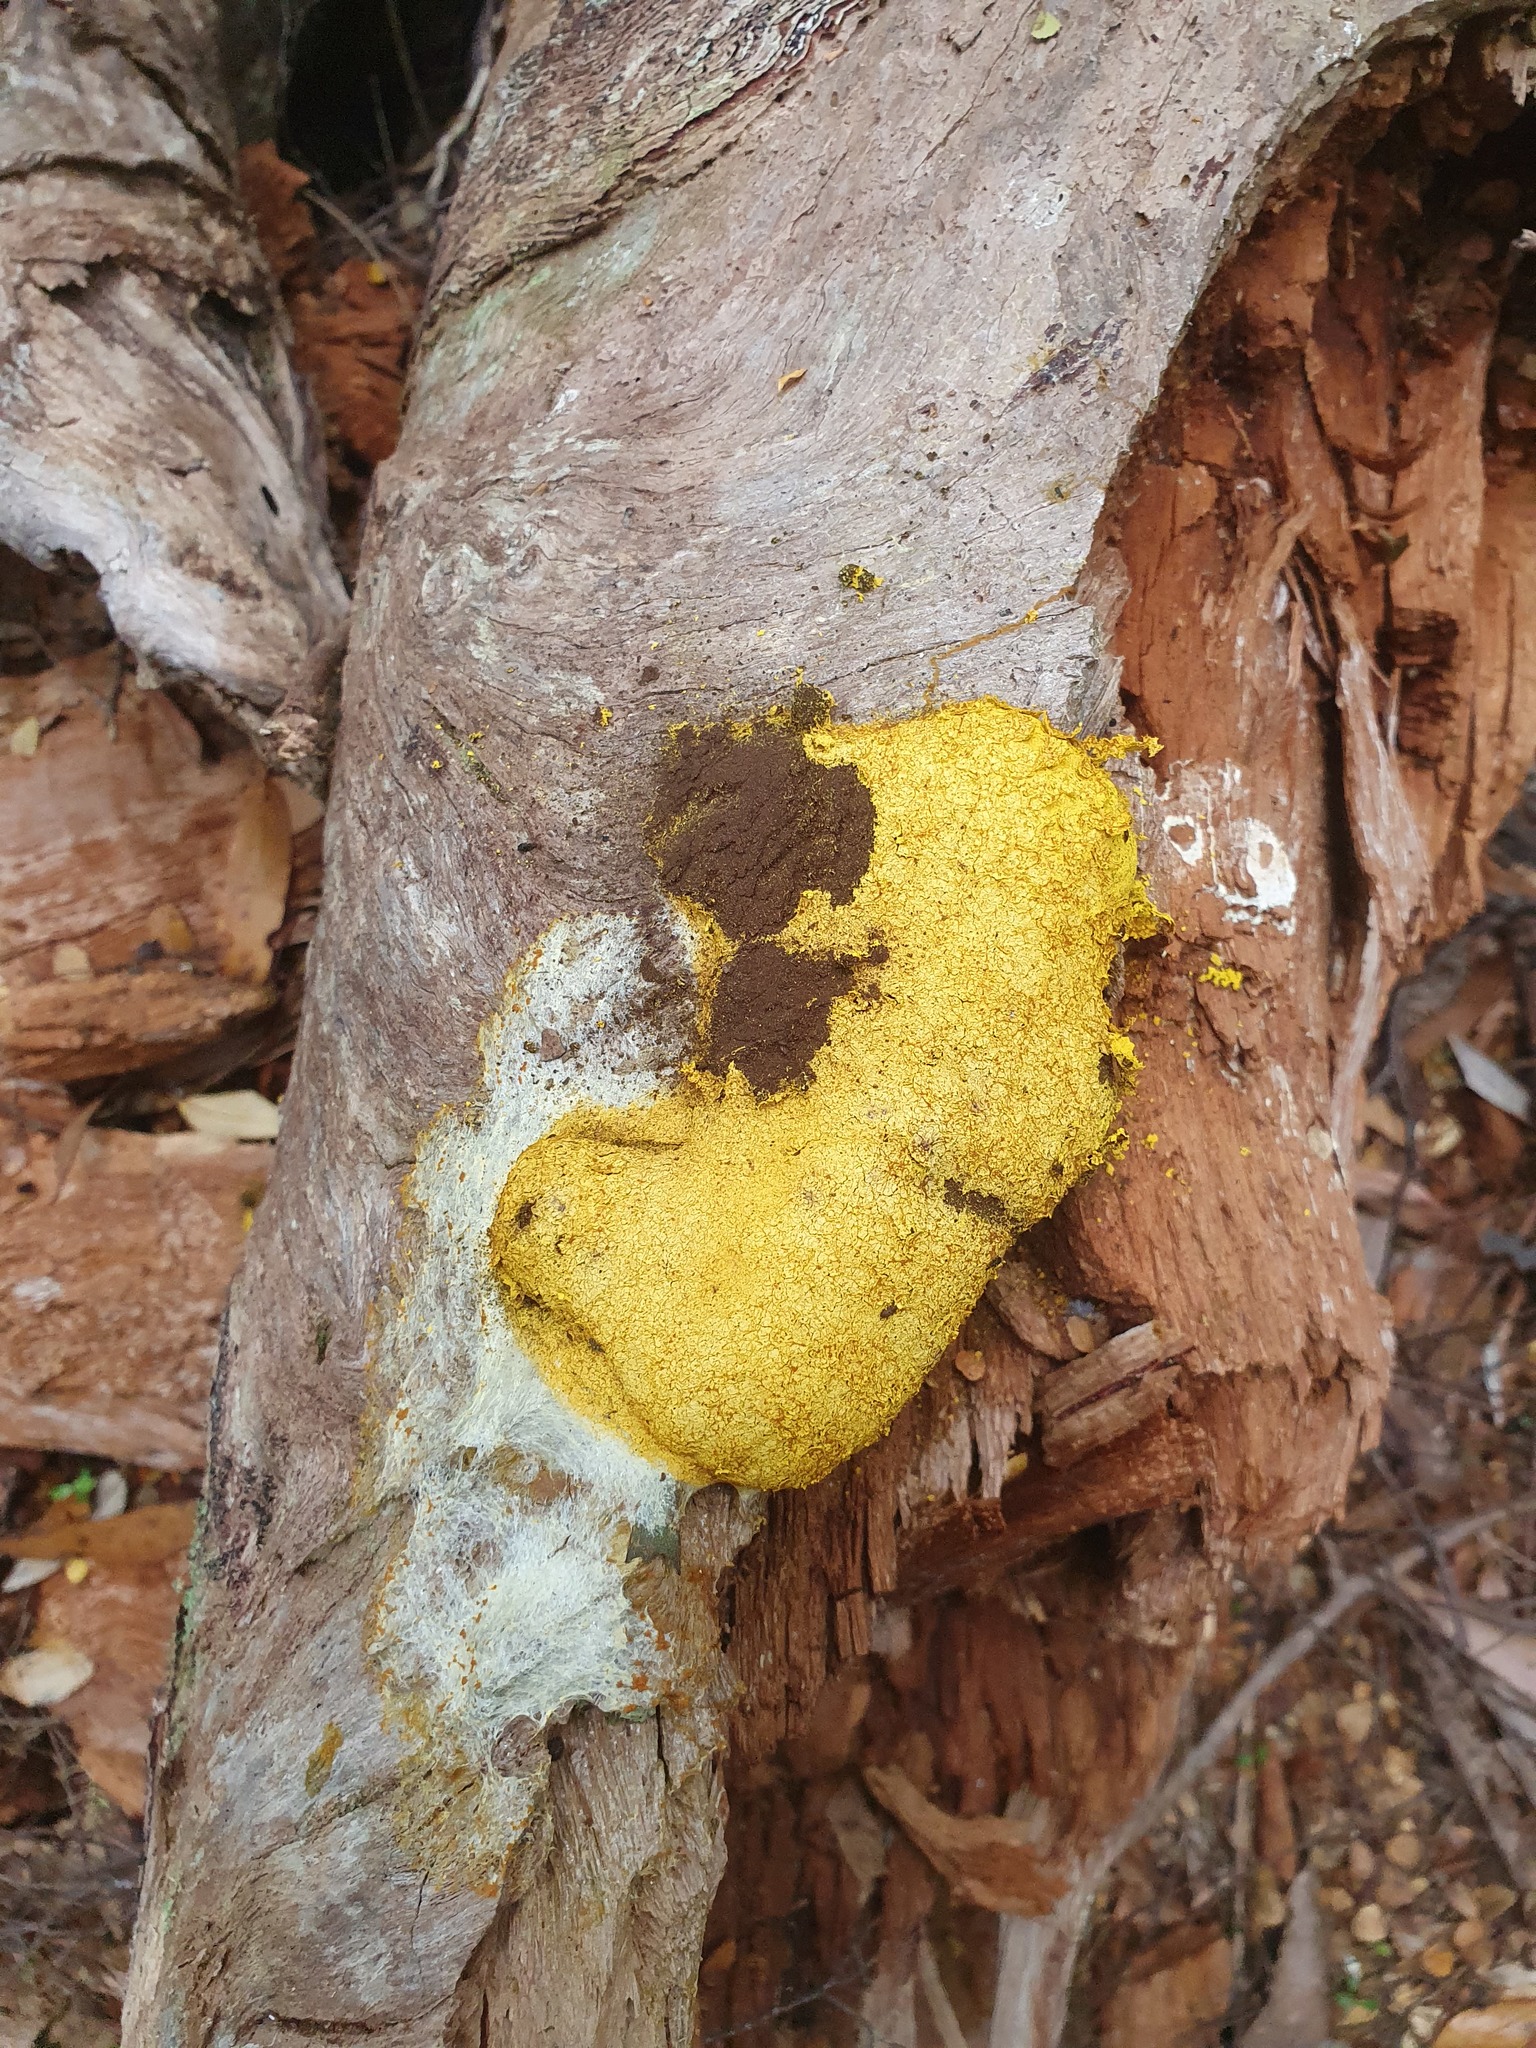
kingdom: Protozoa
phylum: Mycetozoa
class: Myxomycetes
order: Physarales
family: Physaraceae
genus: Fuligo
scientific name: Fuligo septica
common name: Dog vomit slime mold
